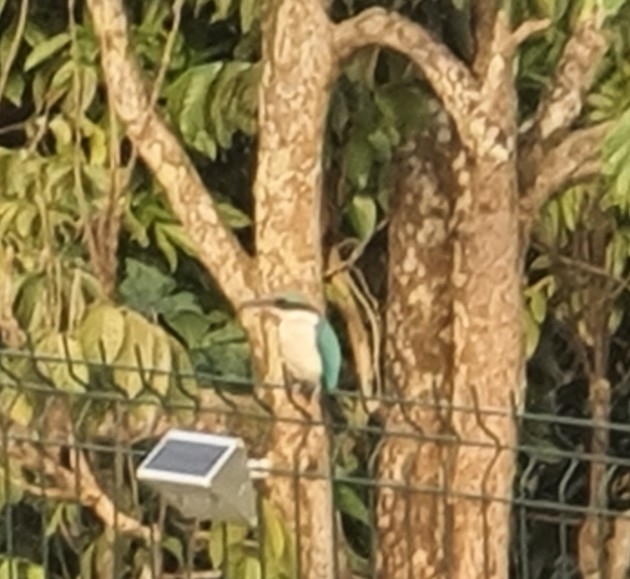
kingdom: Animalia
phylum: Chordata
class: Aves
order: Coraciiformes
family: Alcedinidae
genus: Todiramphus
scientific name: Todiramphus chloris
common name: Collared kingfisher
